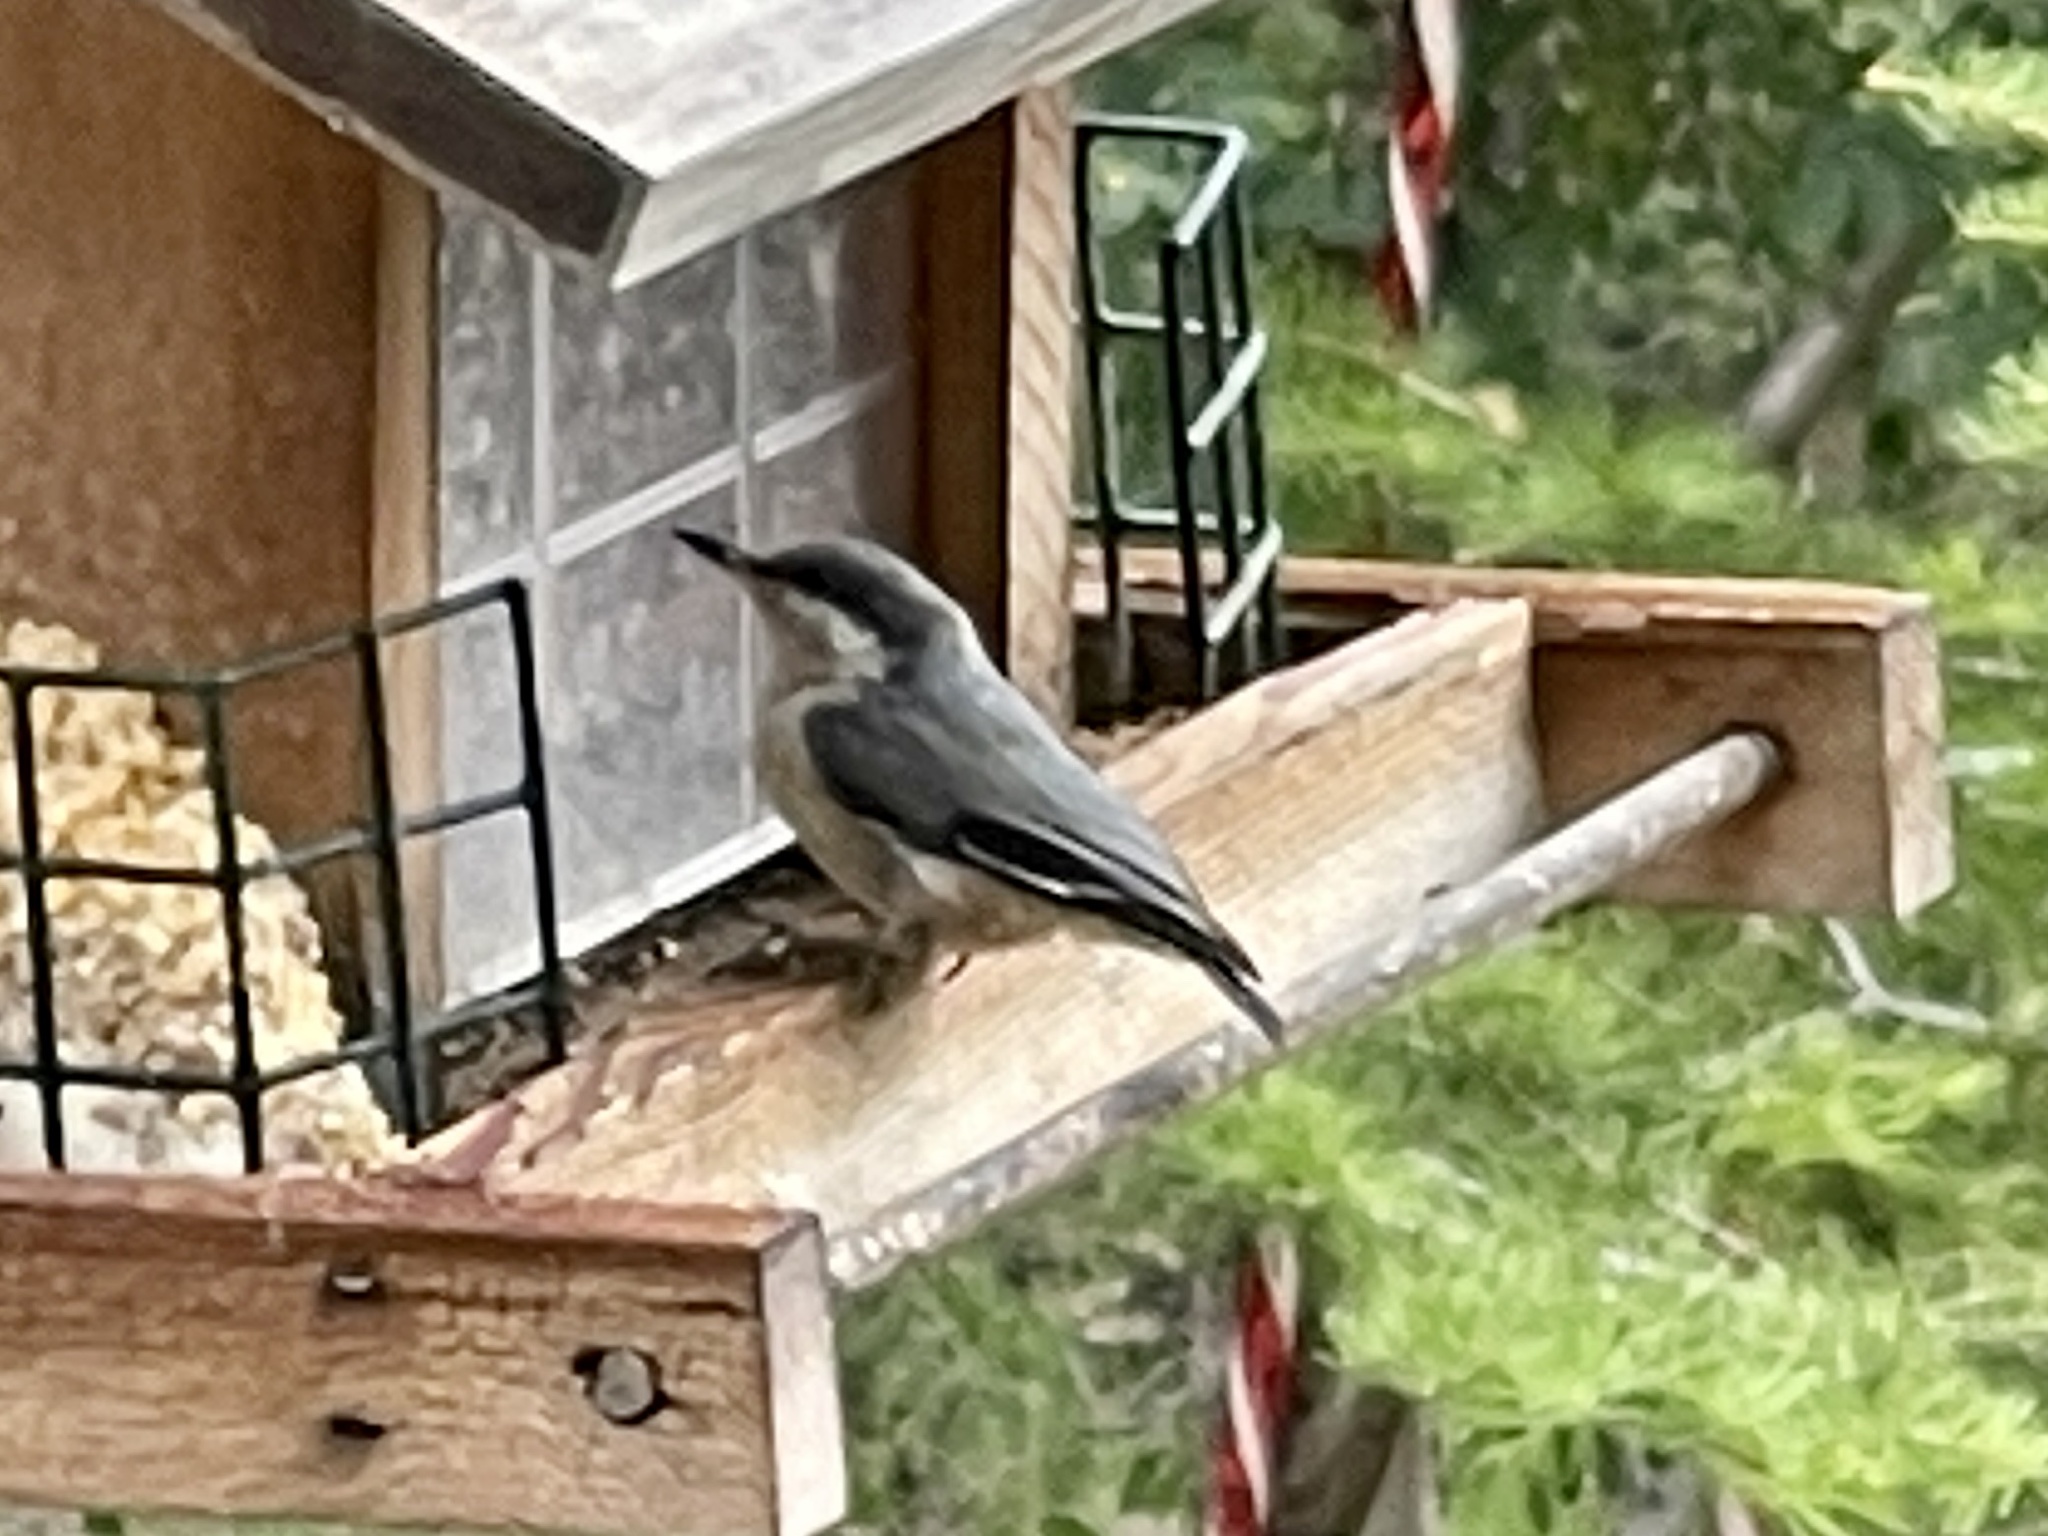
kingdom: Animalia
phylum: Chordata
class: Aves
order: Passeriformes
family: Sittidae
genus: Sitta
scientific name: Sitta pygmaea
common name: Pygmy nuthatch
